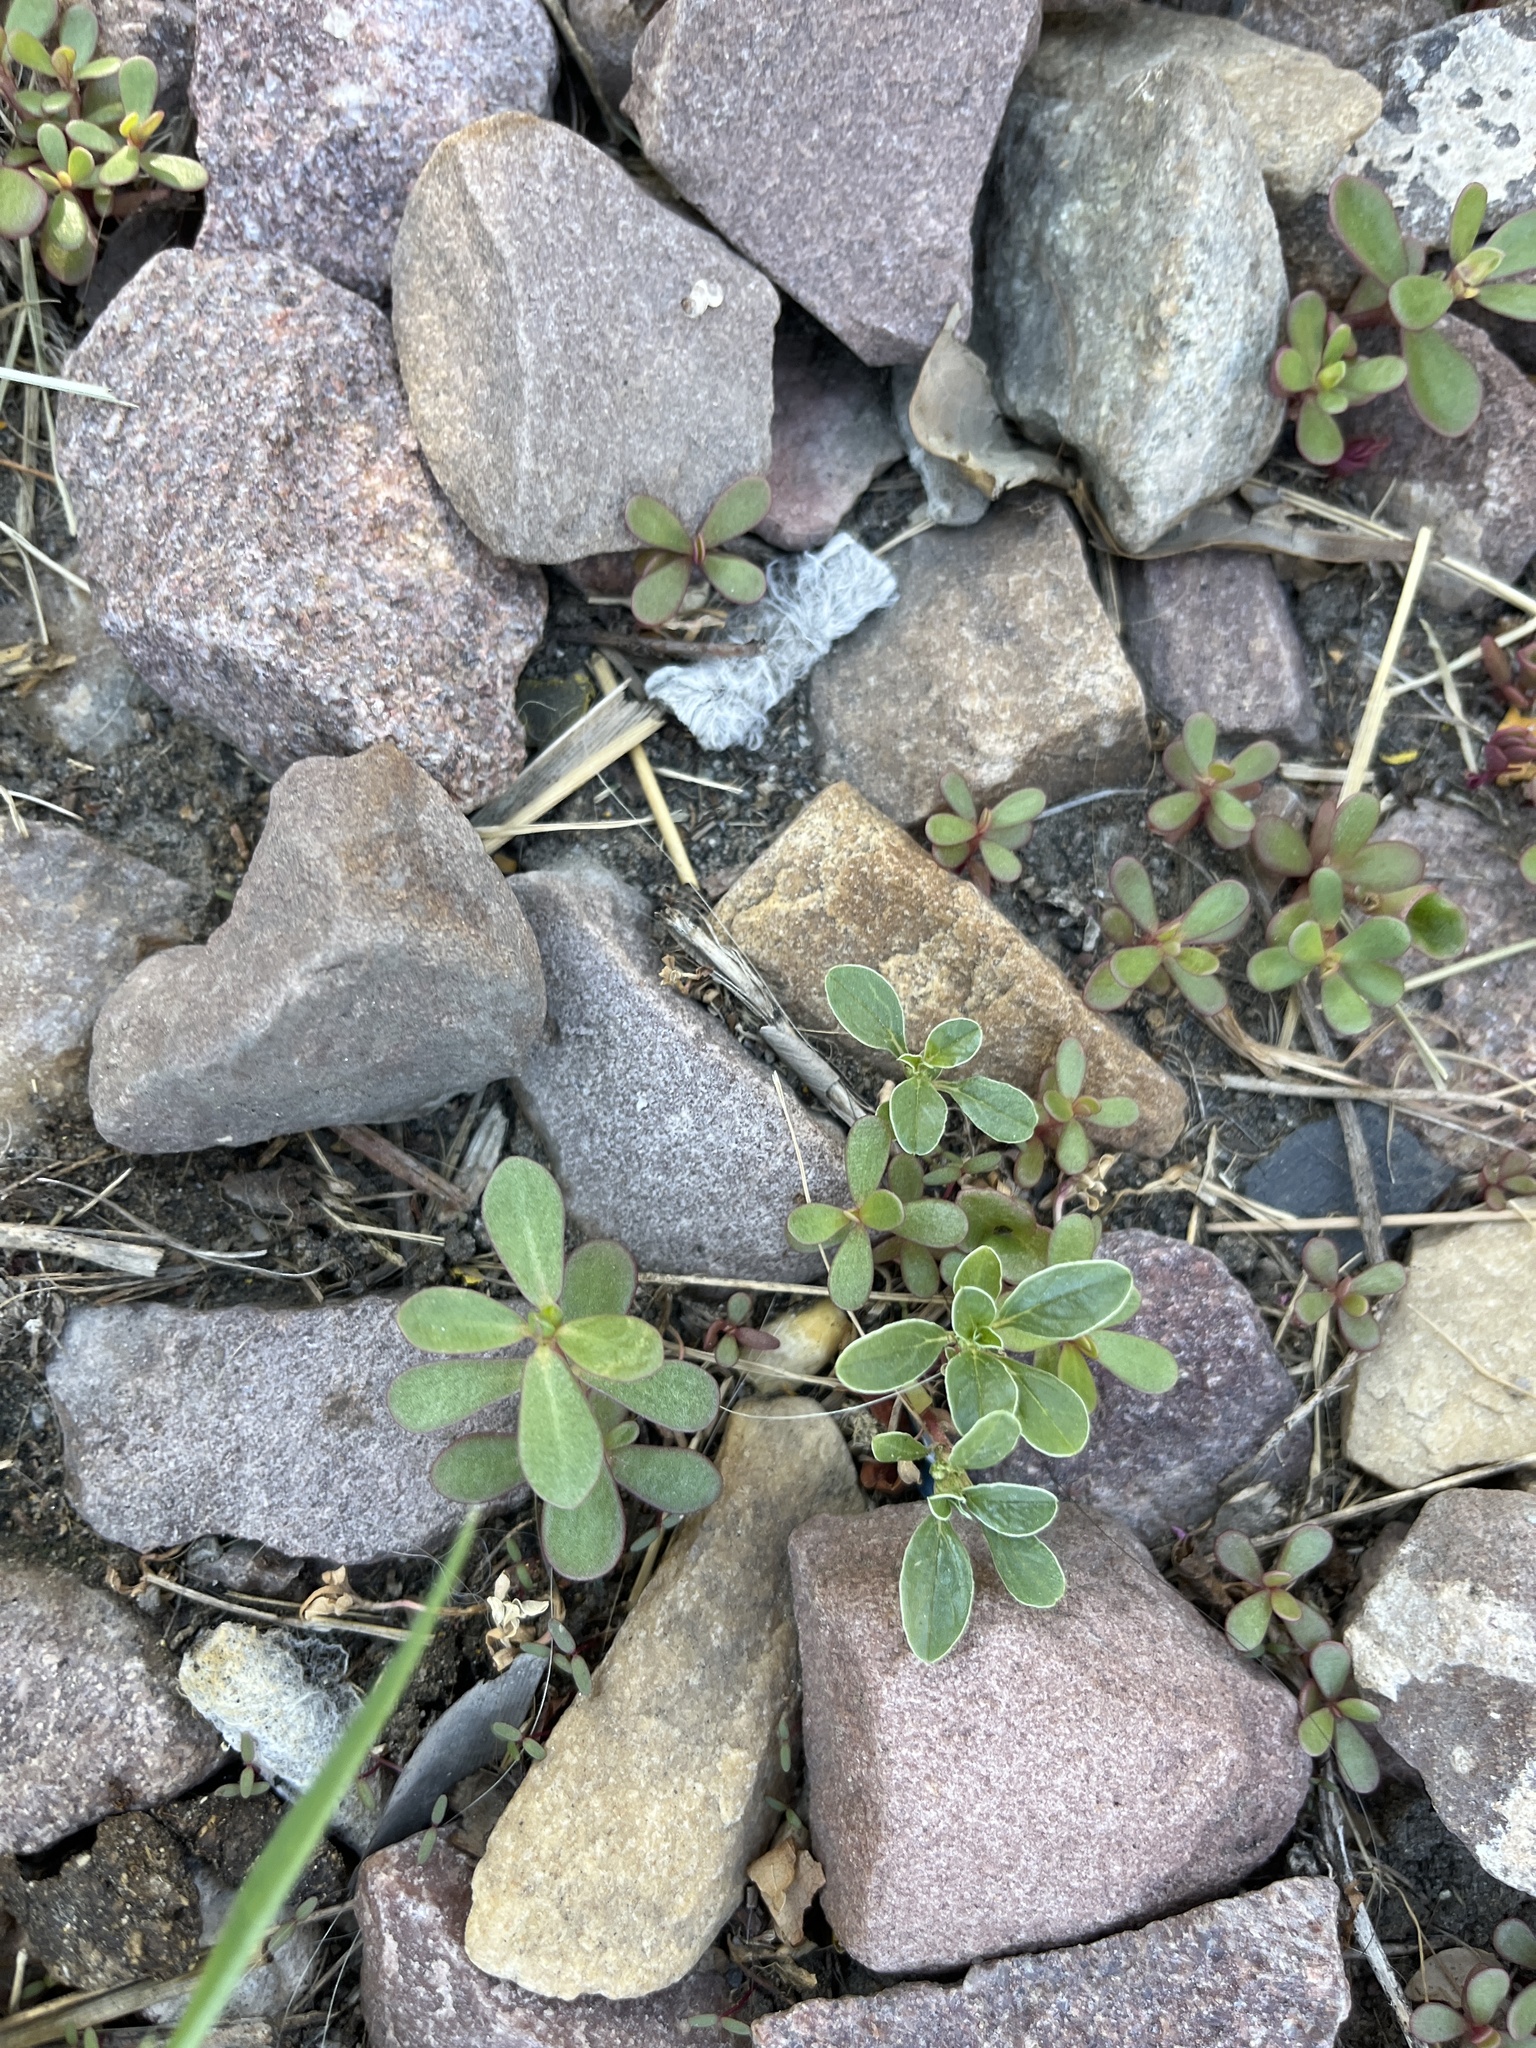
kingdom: Plantae
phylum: Tracheophyta
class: Magnoliopsida
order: Caryophyllales
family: Portulacaceae
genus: Portulaca
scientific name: Portulaca oleracea
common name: Common purslane
